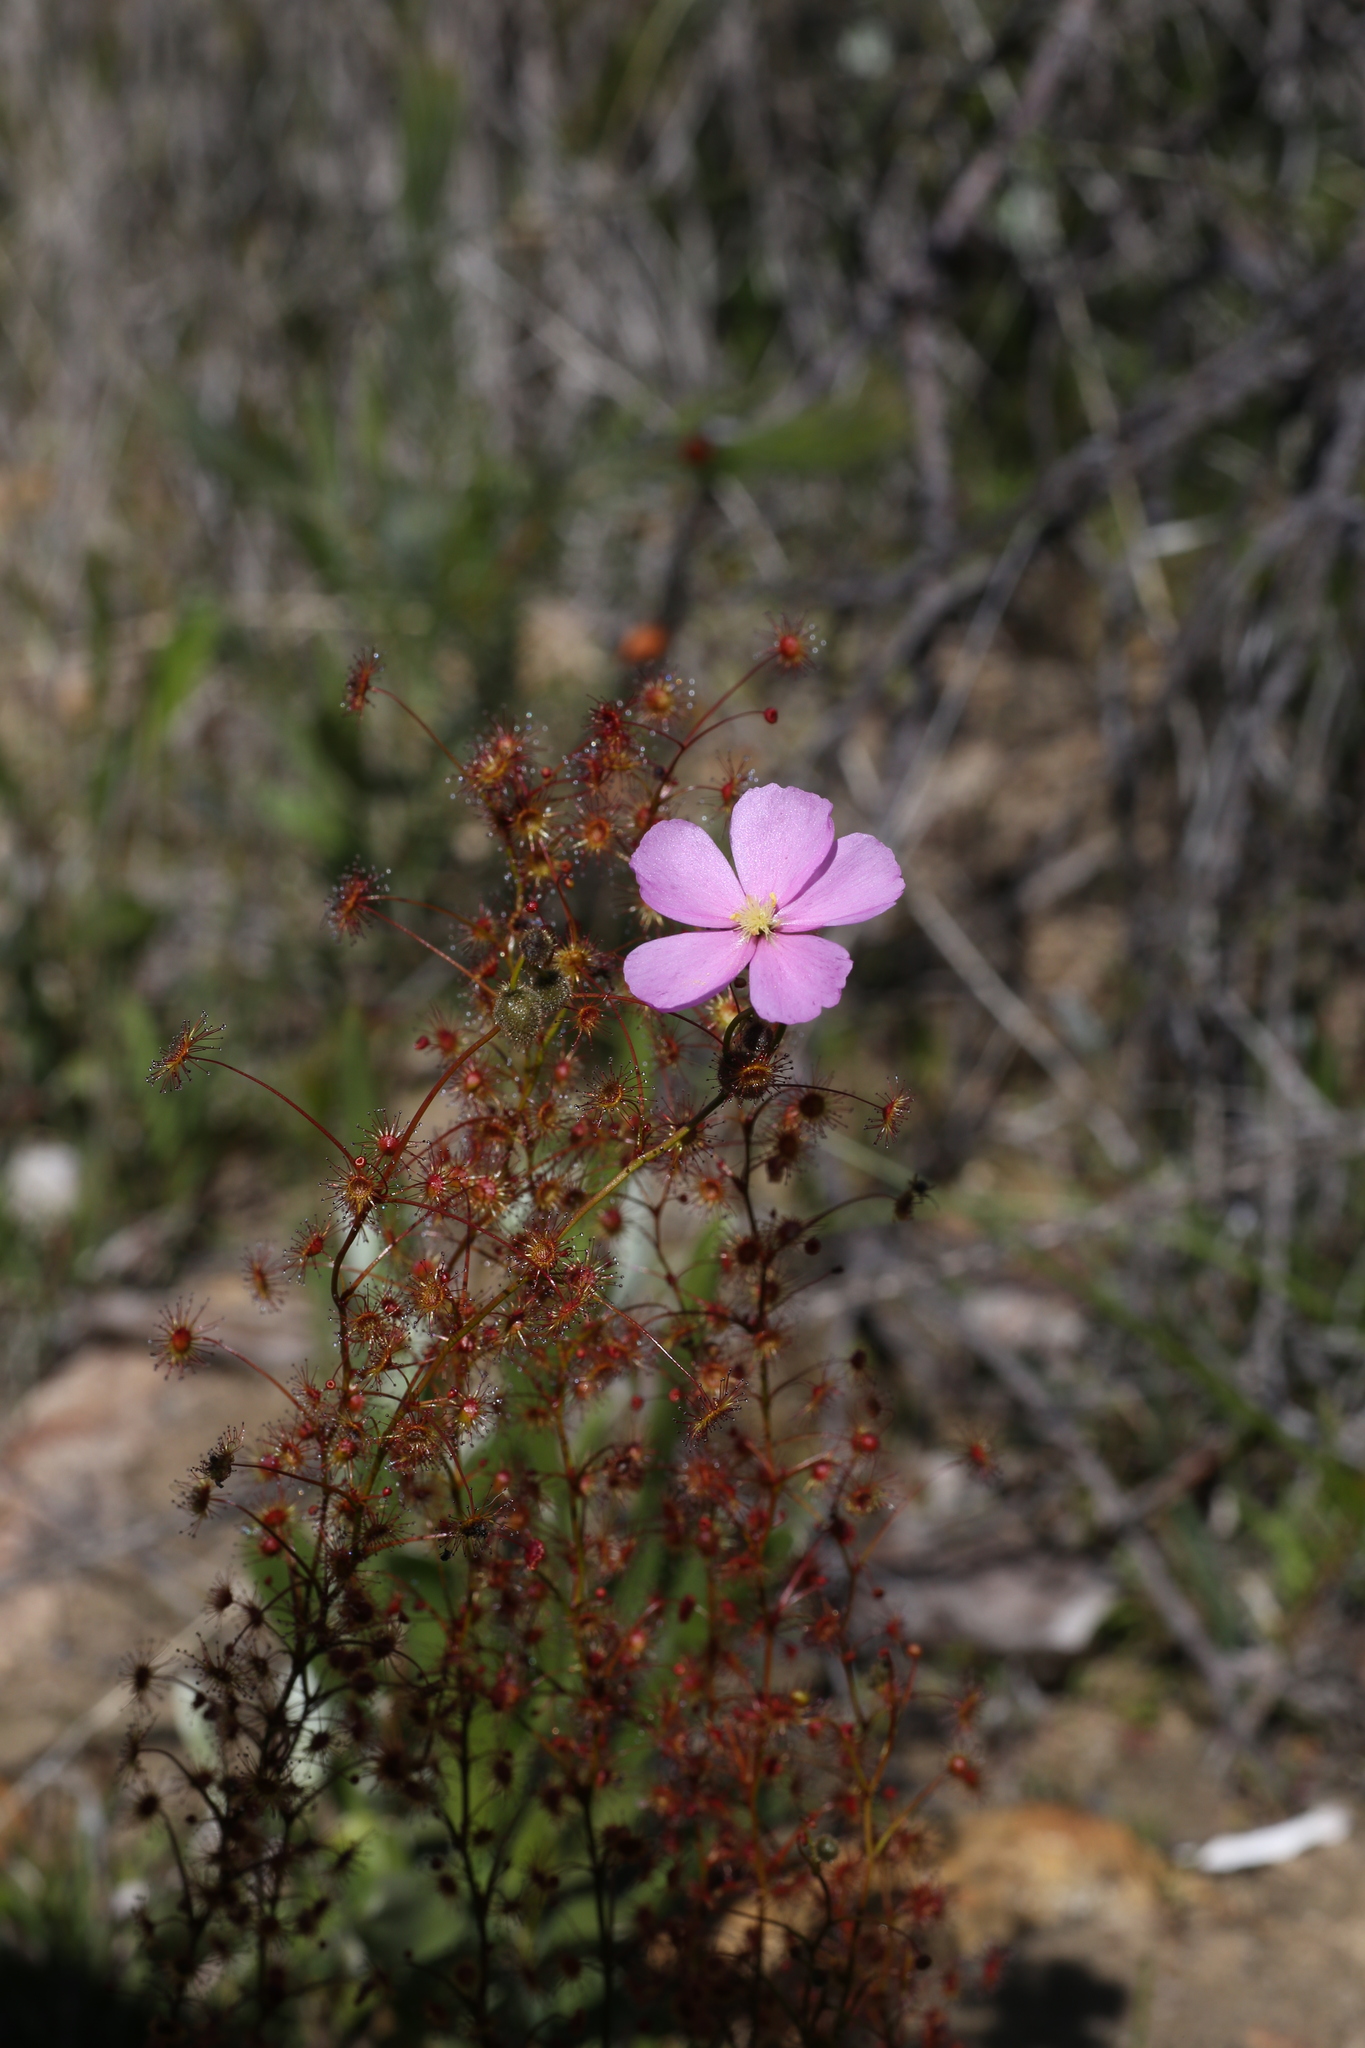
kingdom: Plantae
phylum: Tracheophyta
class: Magnoliopsida
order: Caryophyllales
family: Droseraceae
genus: Drosera
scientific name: Drosera
